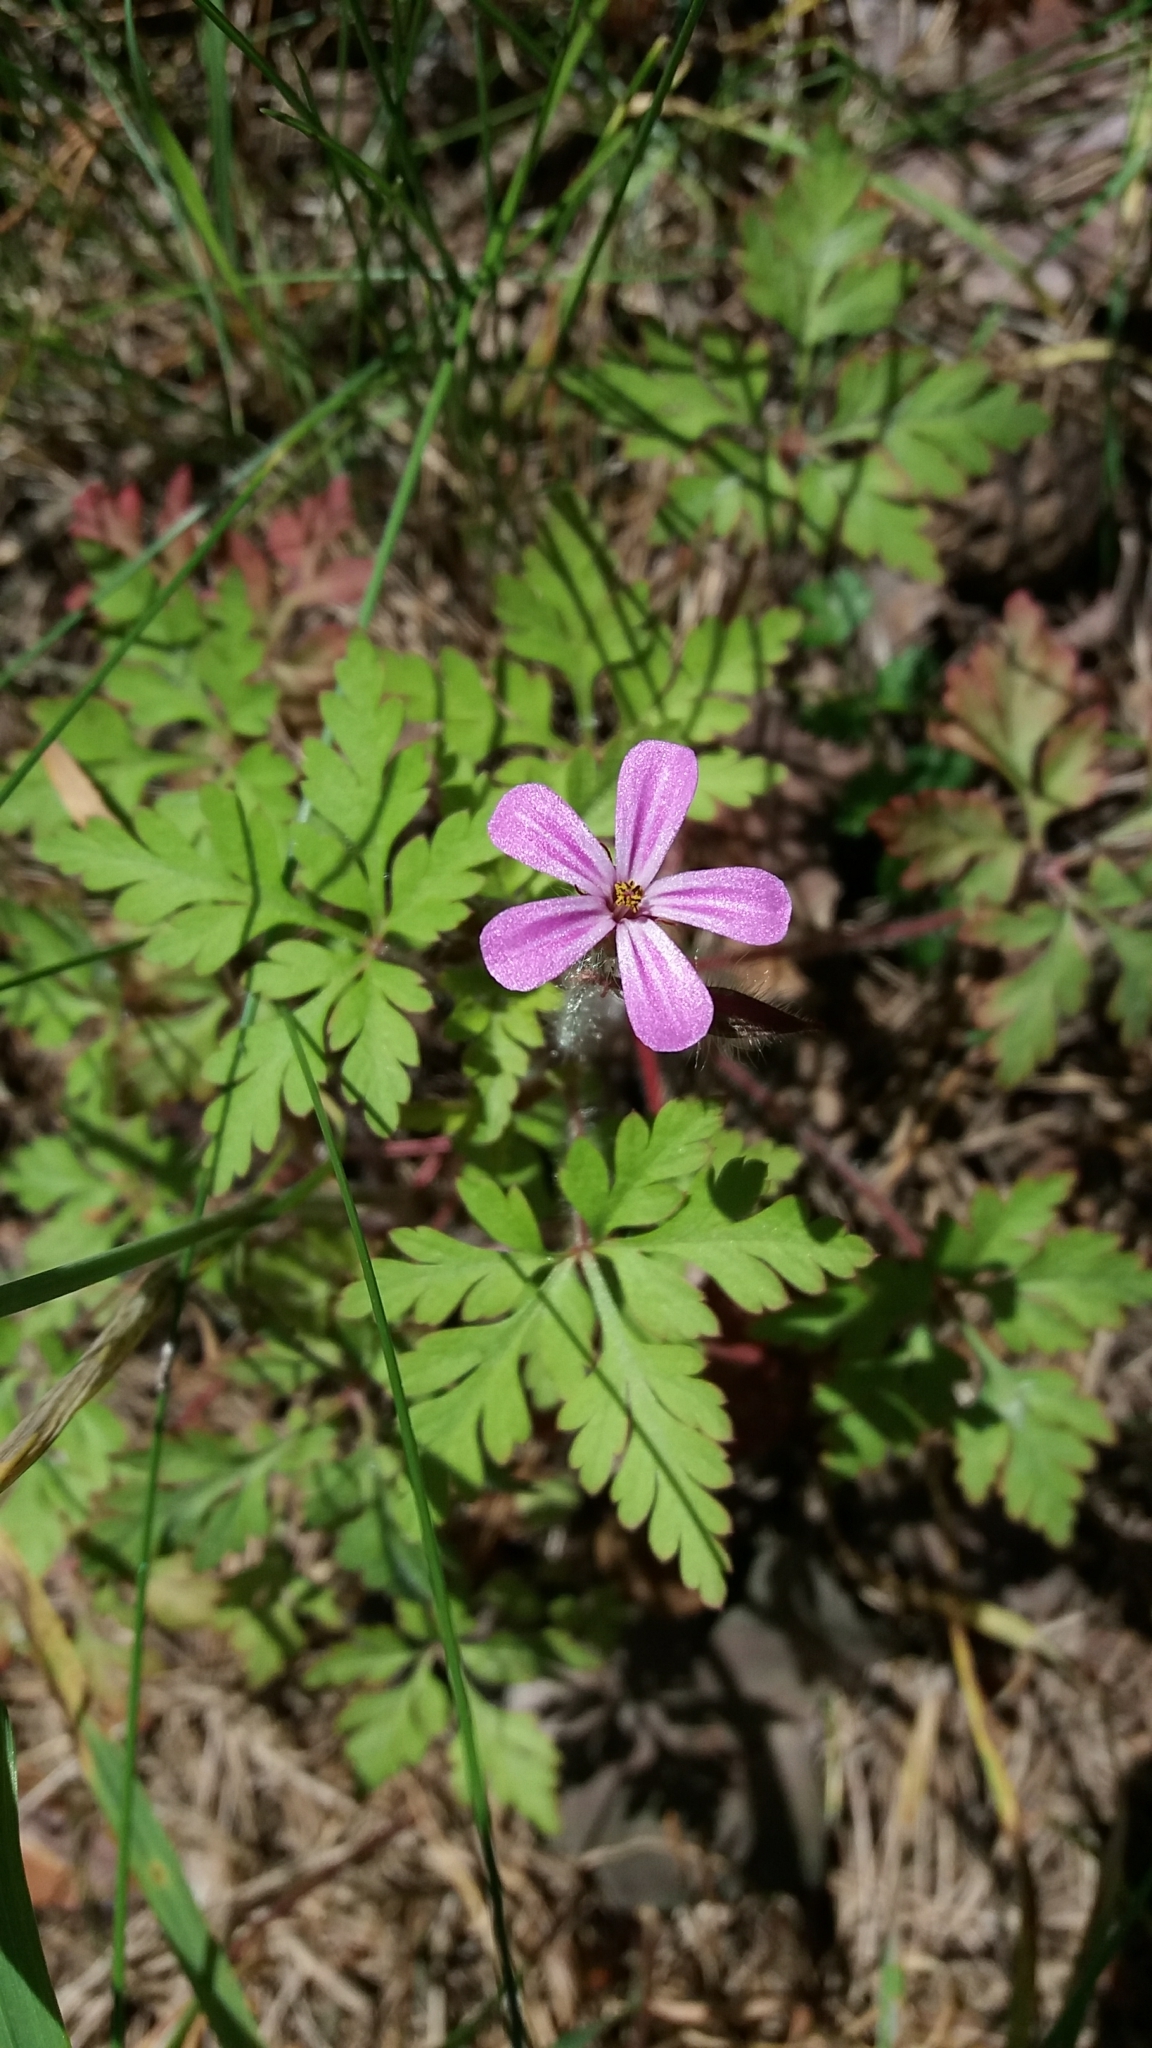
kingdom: Plantae
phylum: Tracheophyta
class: Magnoliopsida
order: Geraniales
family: Geraniaceae
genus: Geranium
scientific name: Geranium robertianum
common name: Herb-robert
